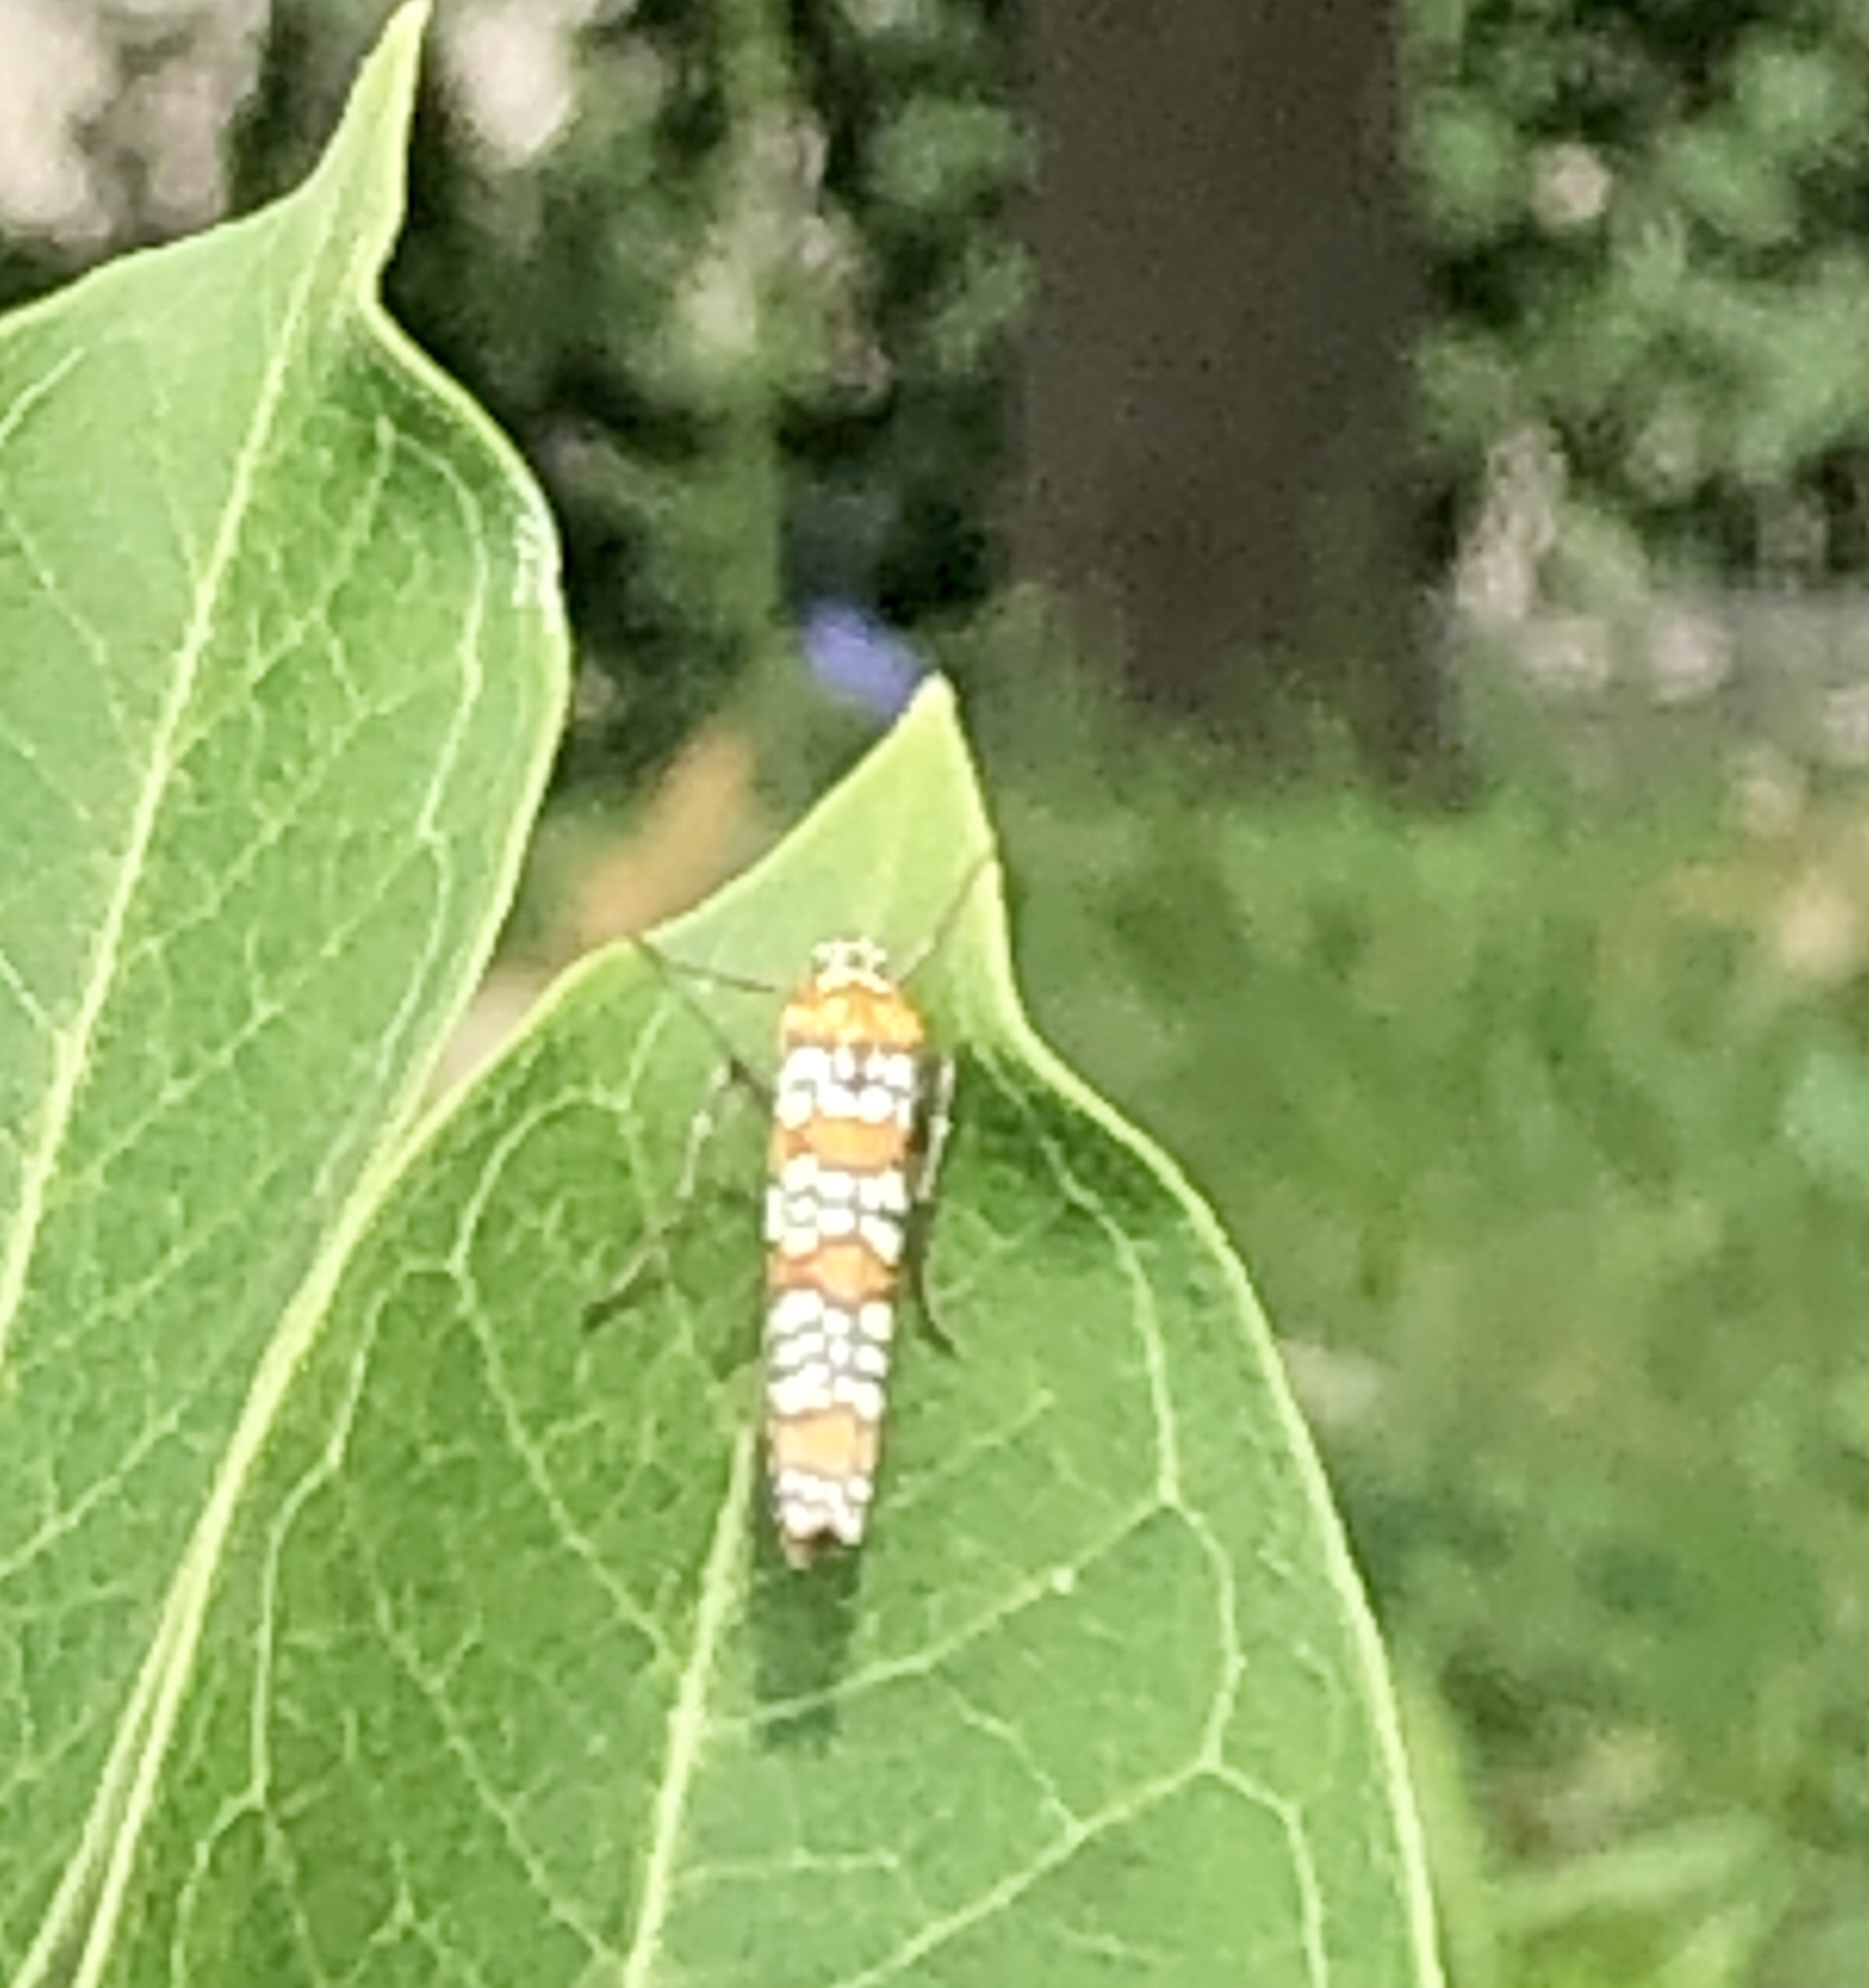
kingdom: Animalia
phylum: Arthropoda
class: Insecta
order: Lepidoptera
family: Attevidae
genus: Atteva
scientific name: Atteva punctella
